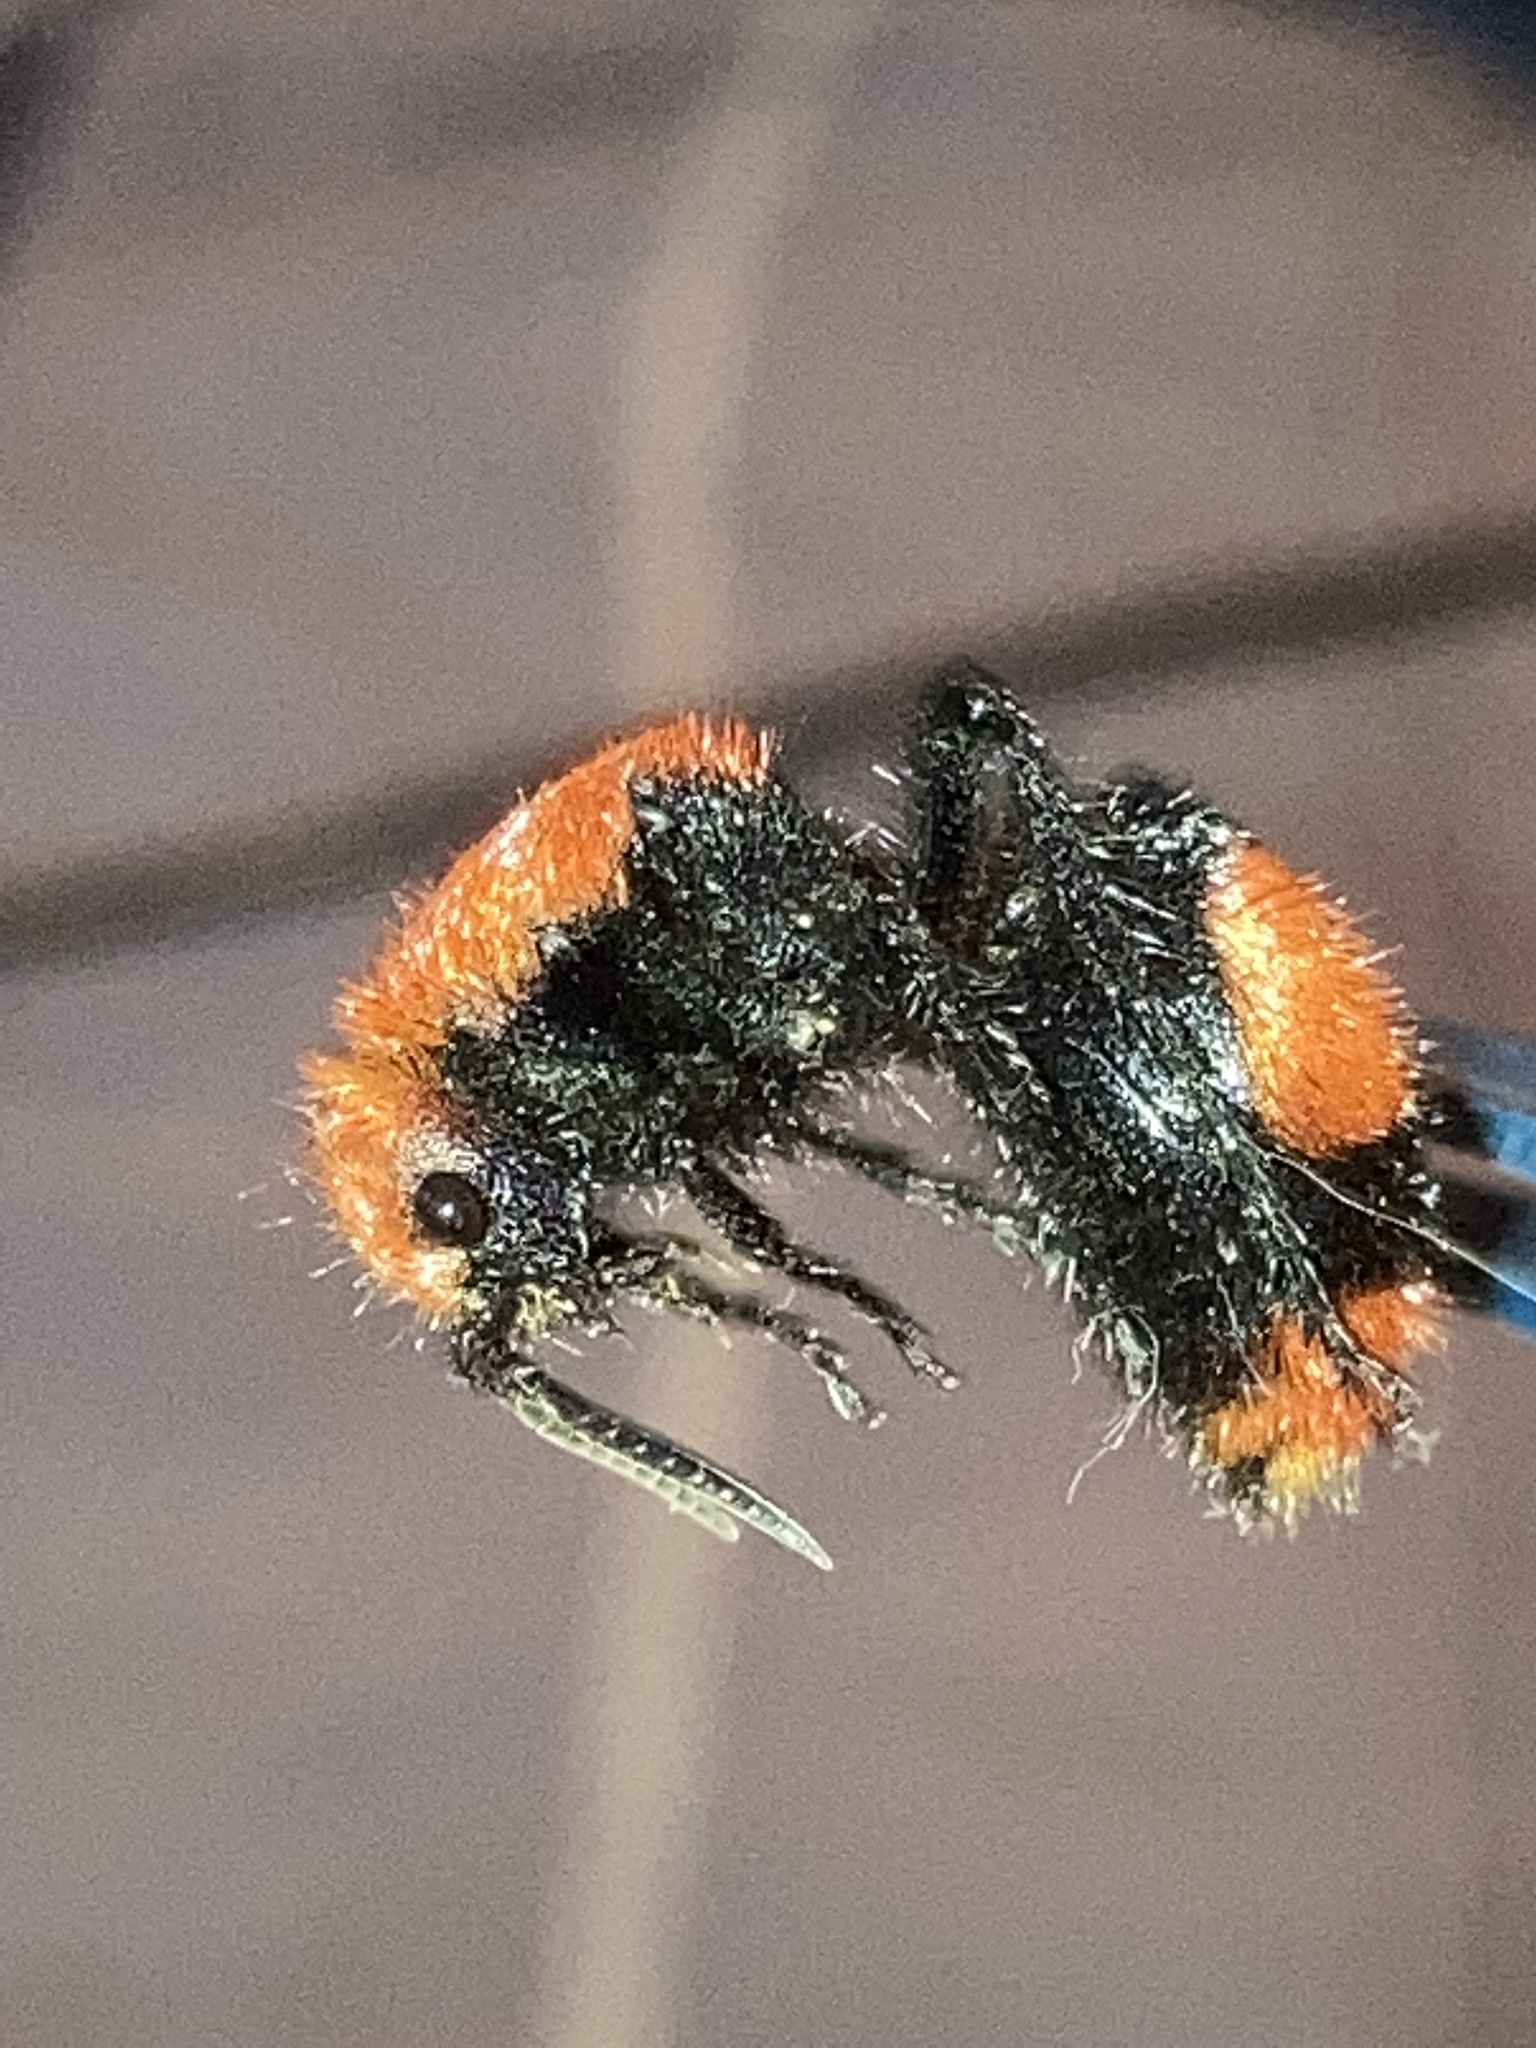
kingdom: Animalia
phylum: Arthropoda
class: Insecta
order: Hymenoptera
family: Mutillidae
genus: Dasymutilla
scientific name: Dasymutilla occidentalis
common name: Common eastern velvet ant
